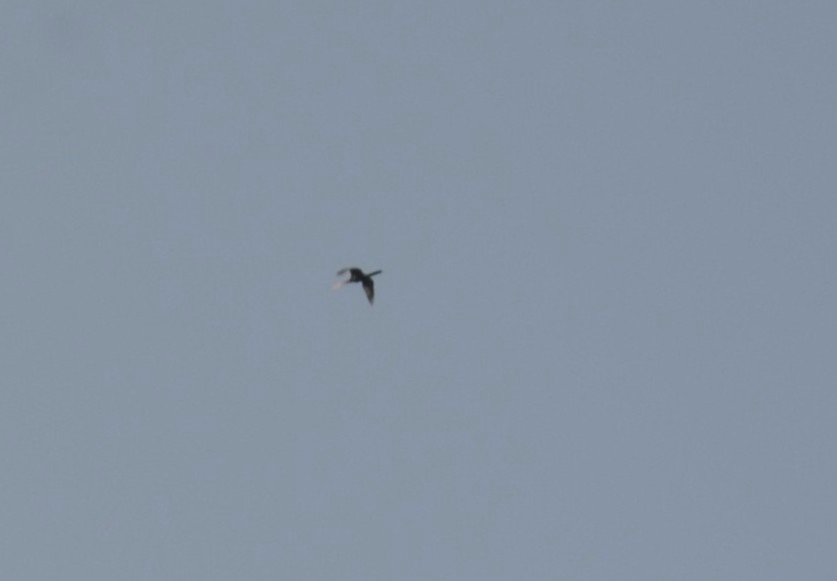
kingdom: Animalia
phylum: Chordata
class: Aves
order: Suliformes
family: Anhingidae
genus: Anhinga
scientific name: Anhinga melanogaster
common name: Oriental darter
